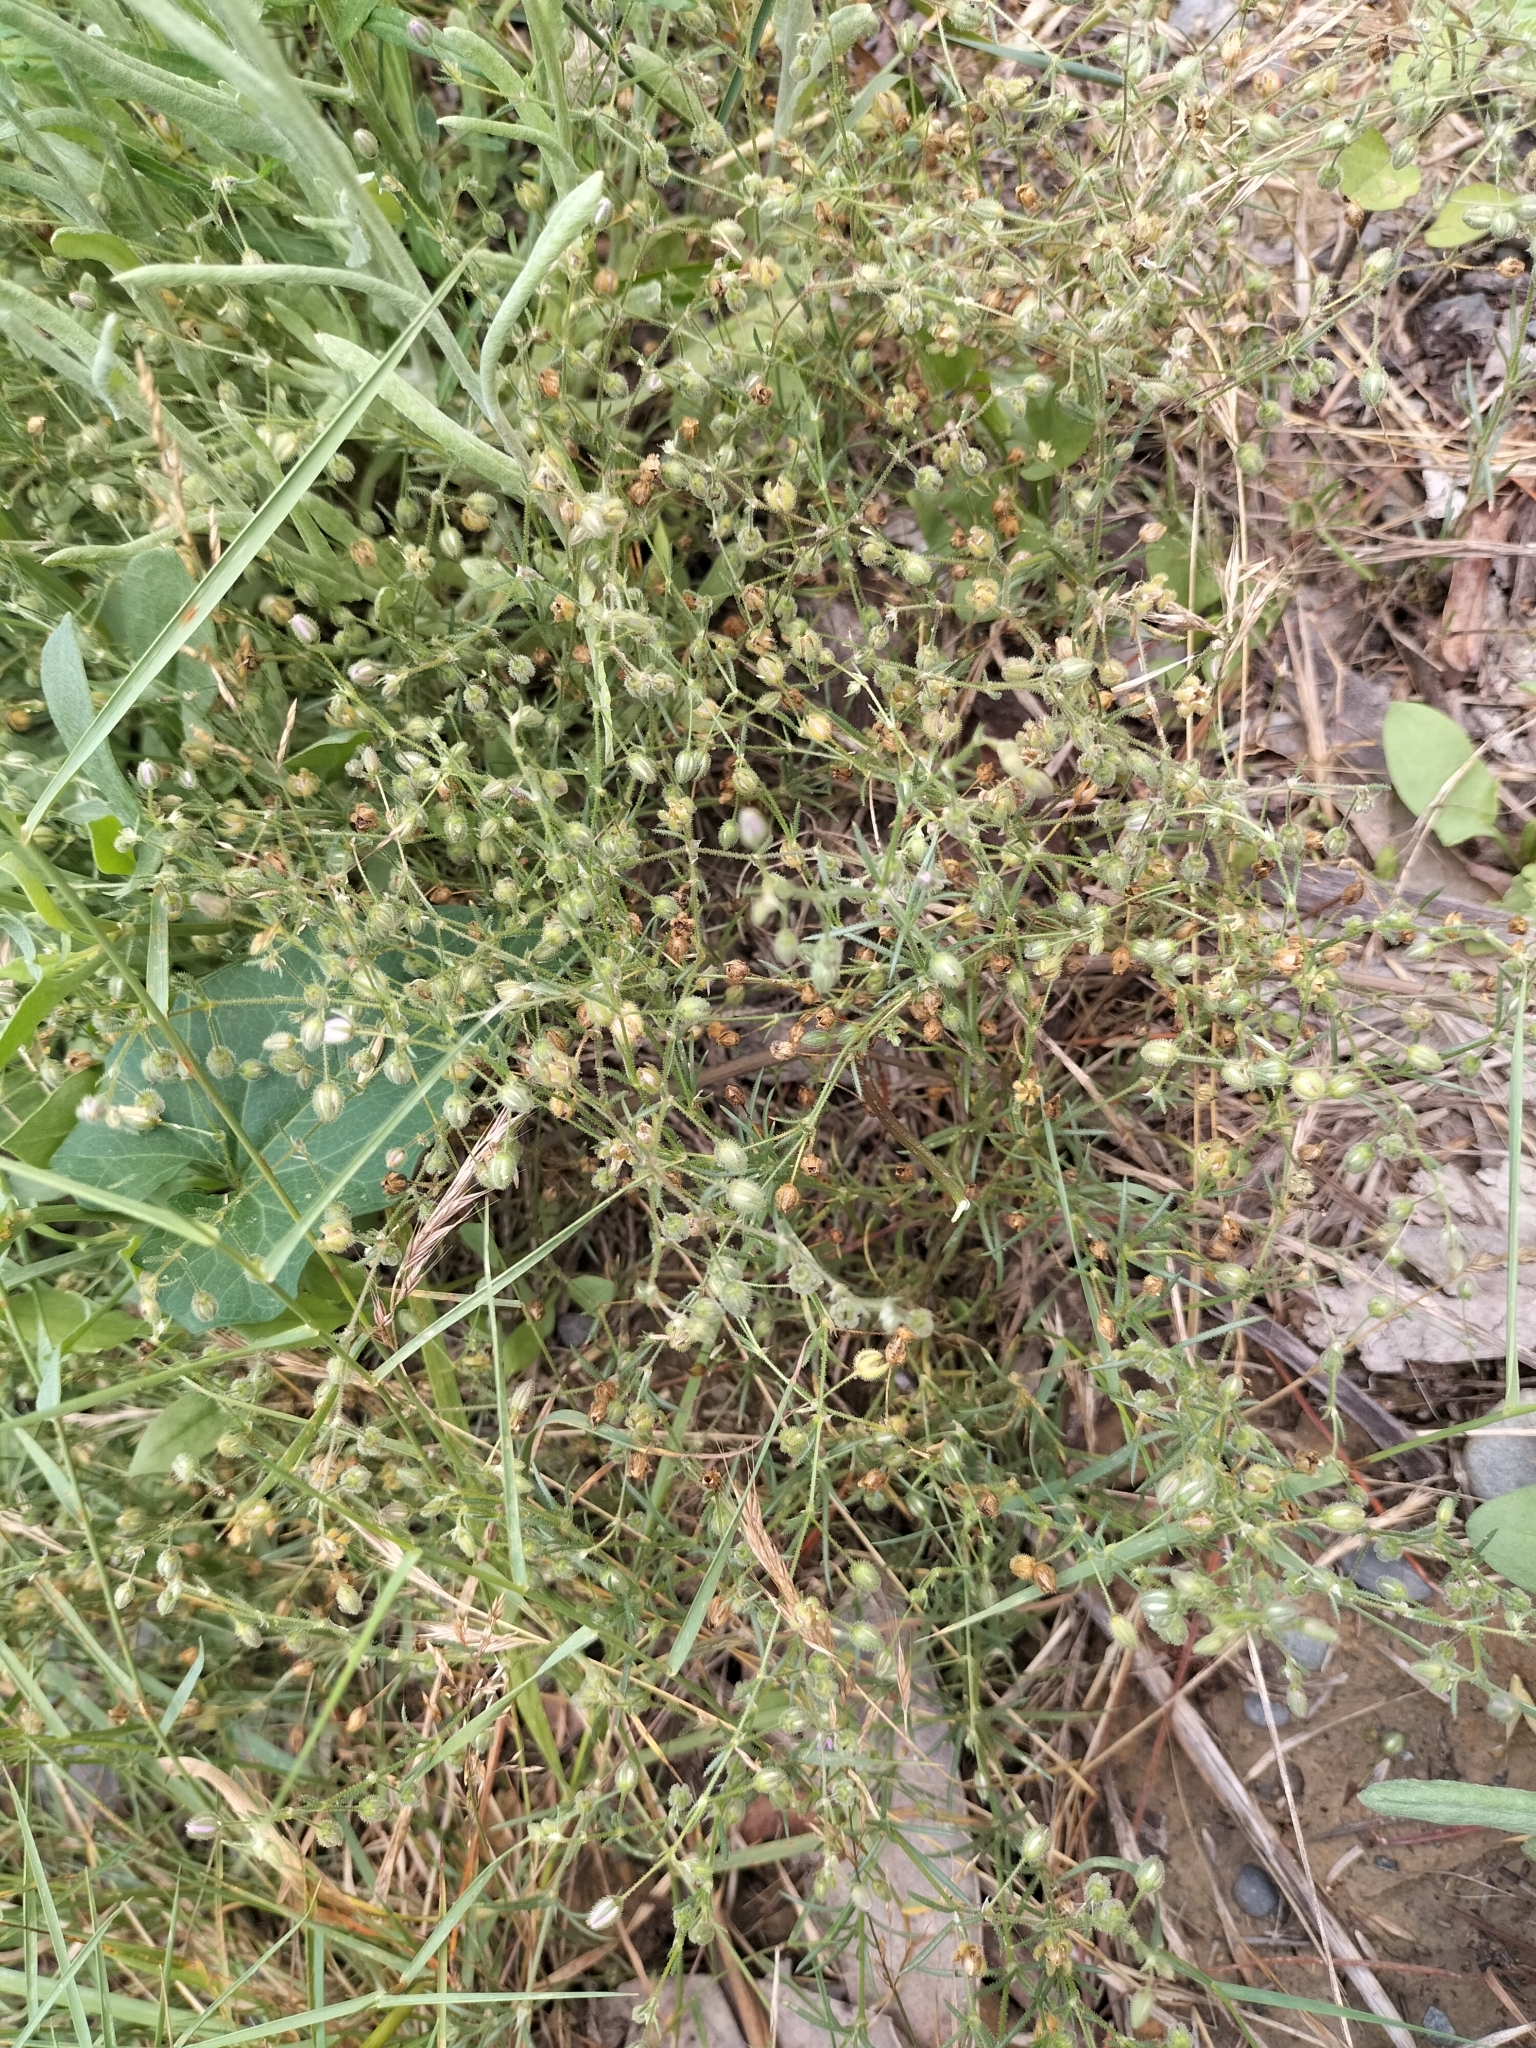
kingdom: Plantae
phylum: Tracheophyta
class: Magnoliopsida
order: Caryophyllales
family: Caryophyllaceae
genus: Spergularia
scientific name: Spergularia rubra
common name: Red sand-spurrey
